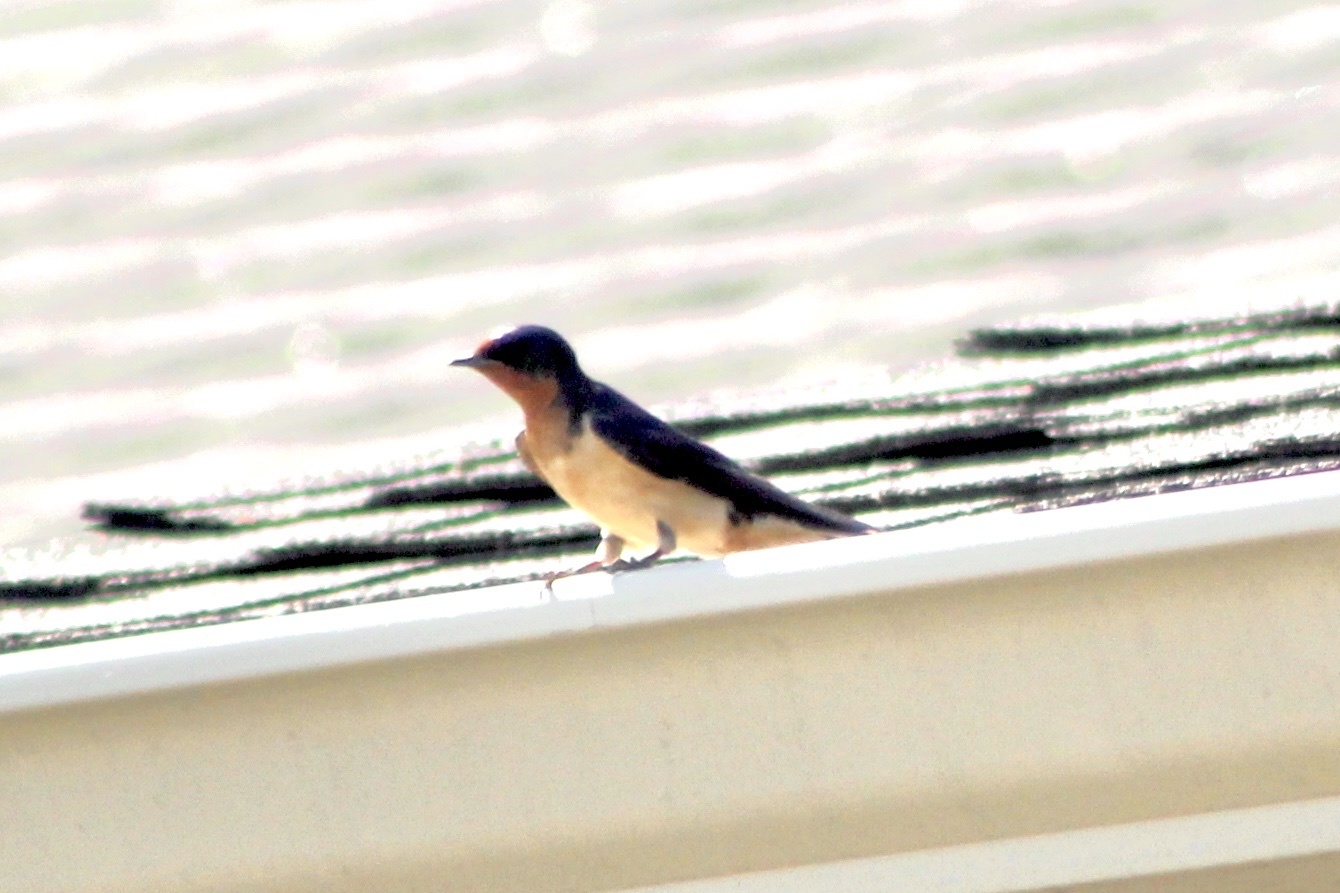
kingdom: Animalia
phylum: Chordata
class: Aves
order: Passeriformes
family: Hirundinidae
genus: Hirundo
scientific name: Hirundo rustica
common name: Barn swallow
